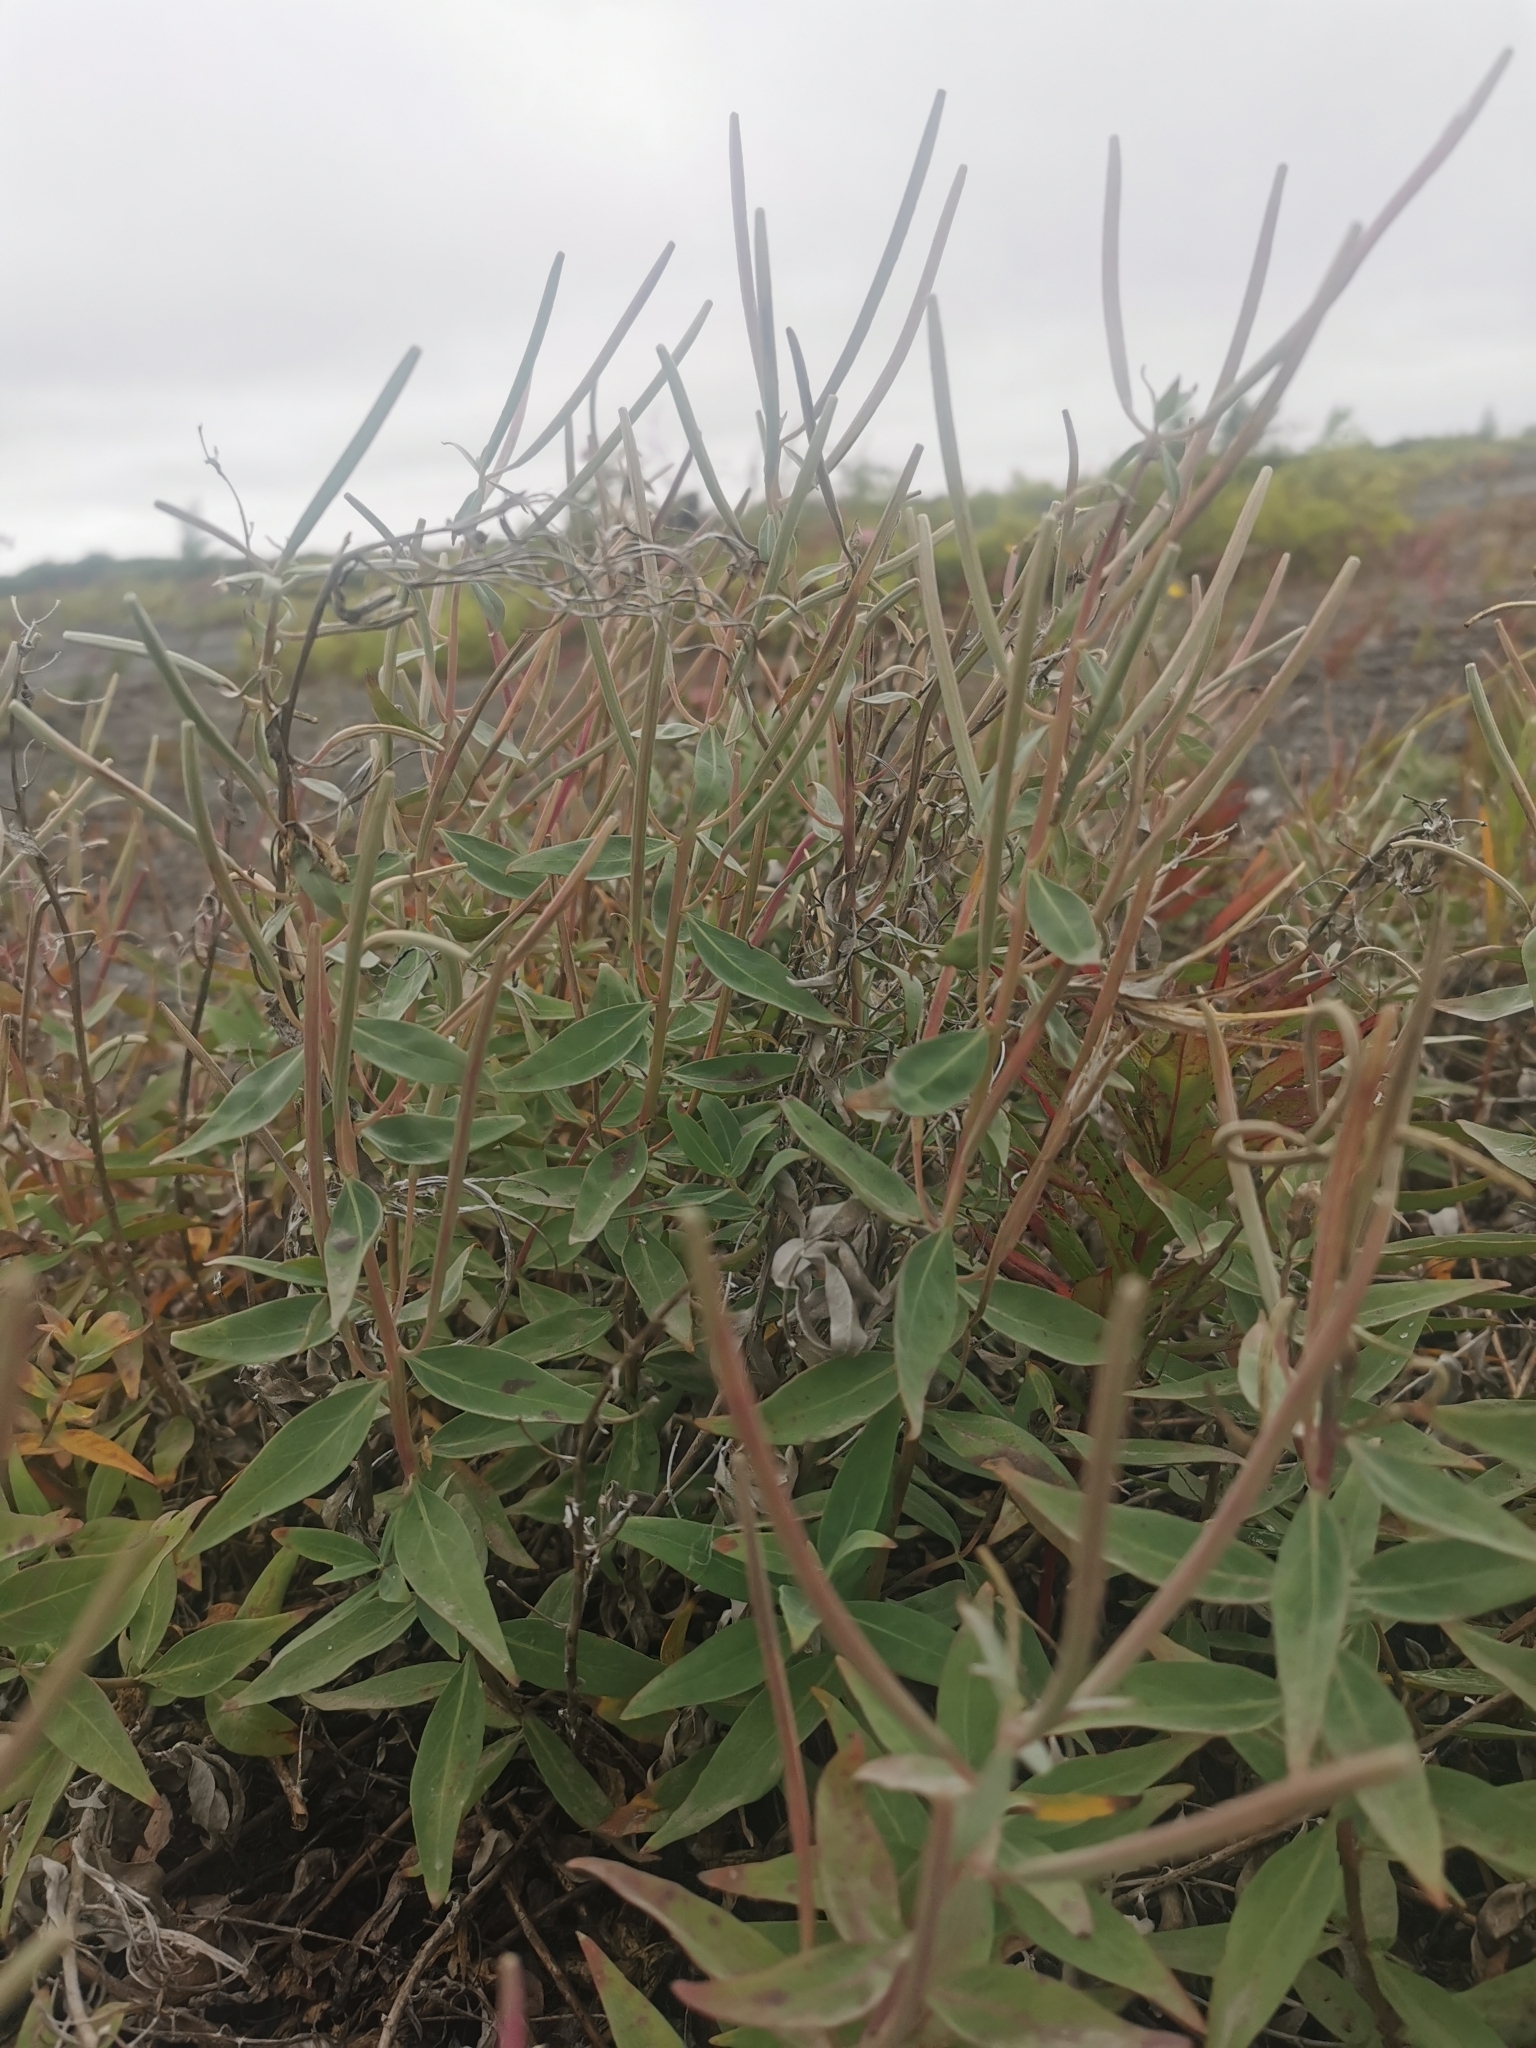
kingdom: Plantae
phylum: Tracheophyta
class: Magnoliopsida
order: Myrtales
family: Onagraceae
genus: Chamaenerion
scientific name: Chamaenerion latifolium
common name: Dwarf fireweed
